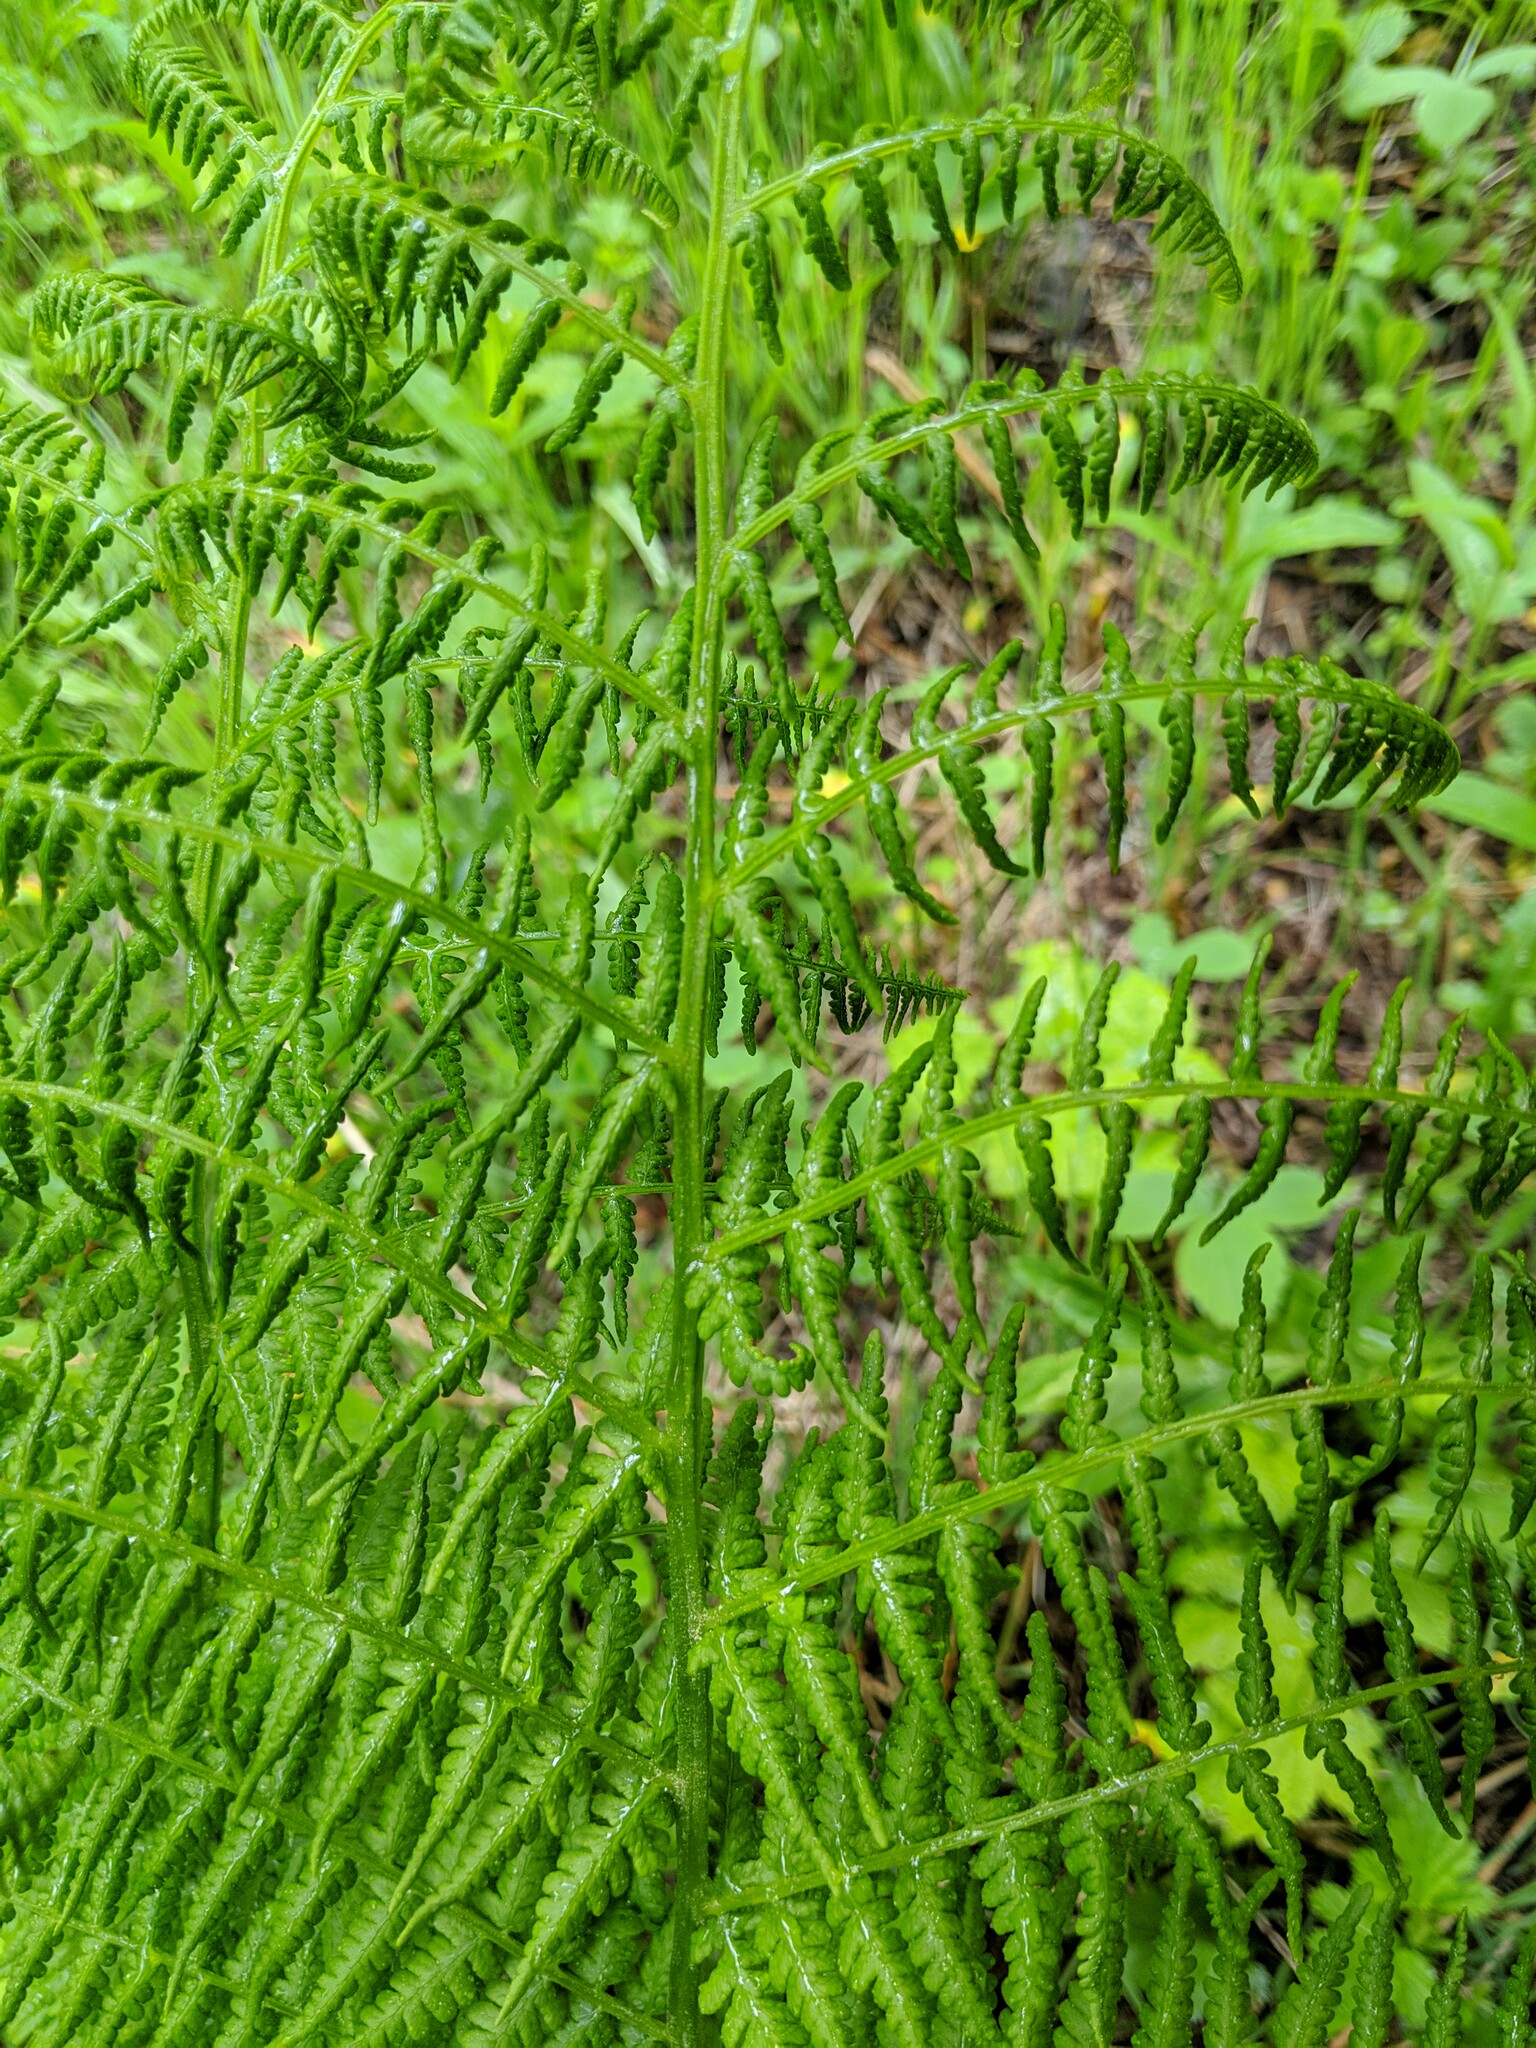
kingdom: Plantae
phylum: Tracheophyta
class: Polypodiopsida
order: Polypodiales
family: Athyriaceae
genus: Athyrium
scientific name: Athyrium cyclosorum
